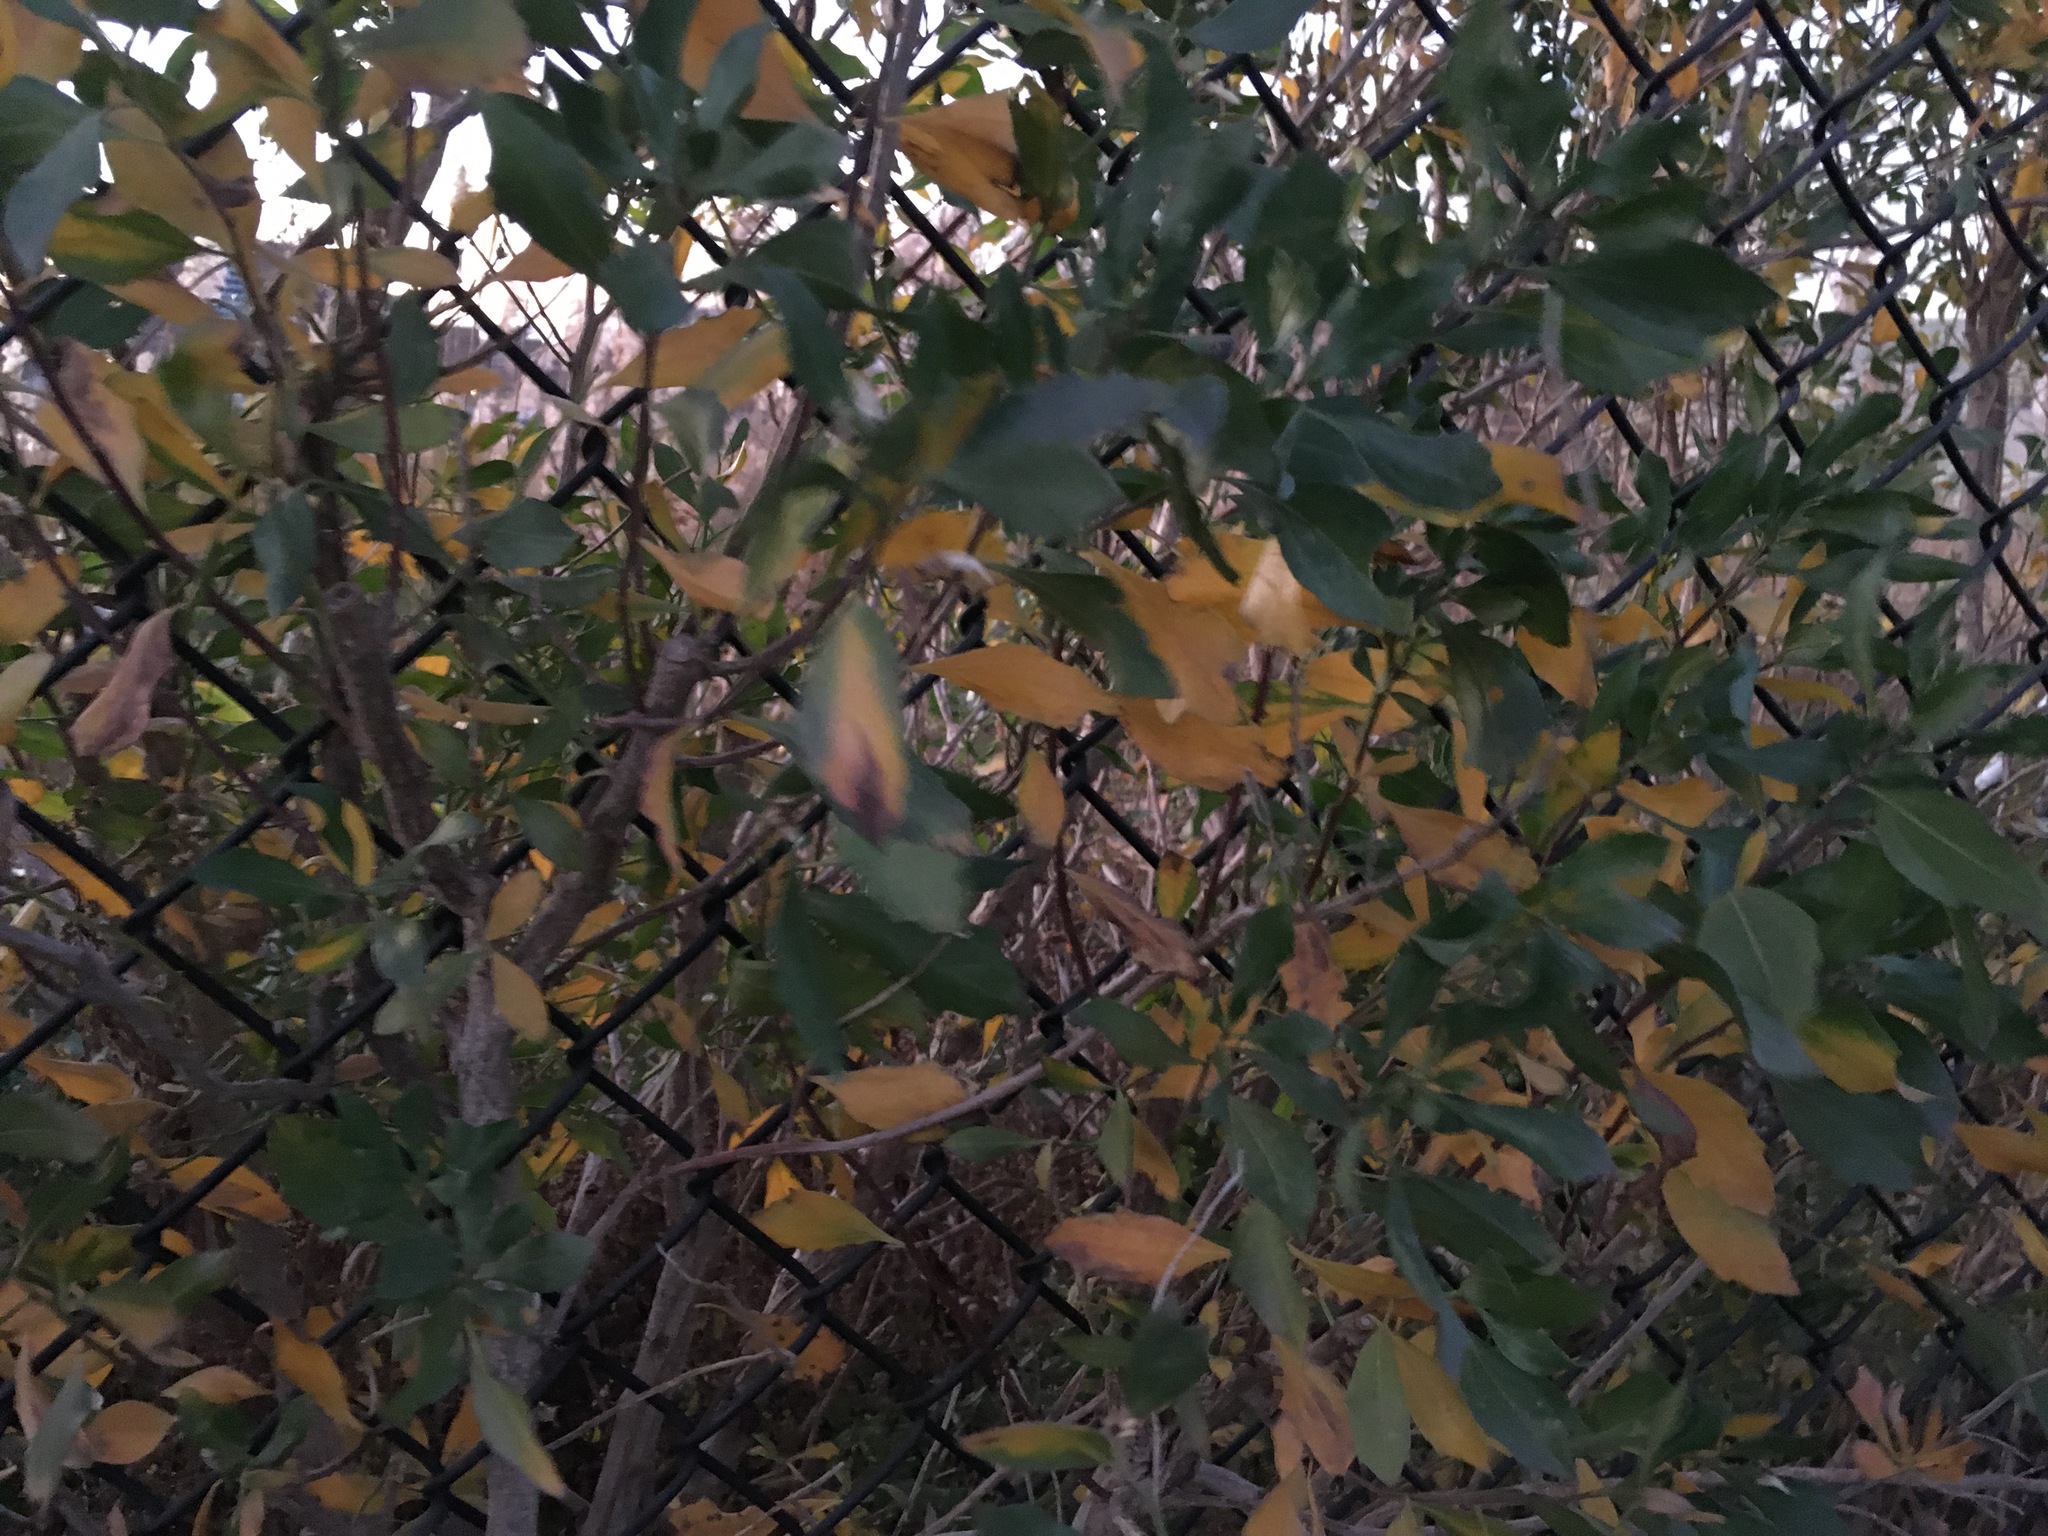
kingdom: Plantae
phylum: Tracheophyta
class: Magnoliopsida
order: Asterales
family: Asteraceae
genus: Baccharis
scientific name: Baccharis halimifolia
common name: Eastern baccharis
